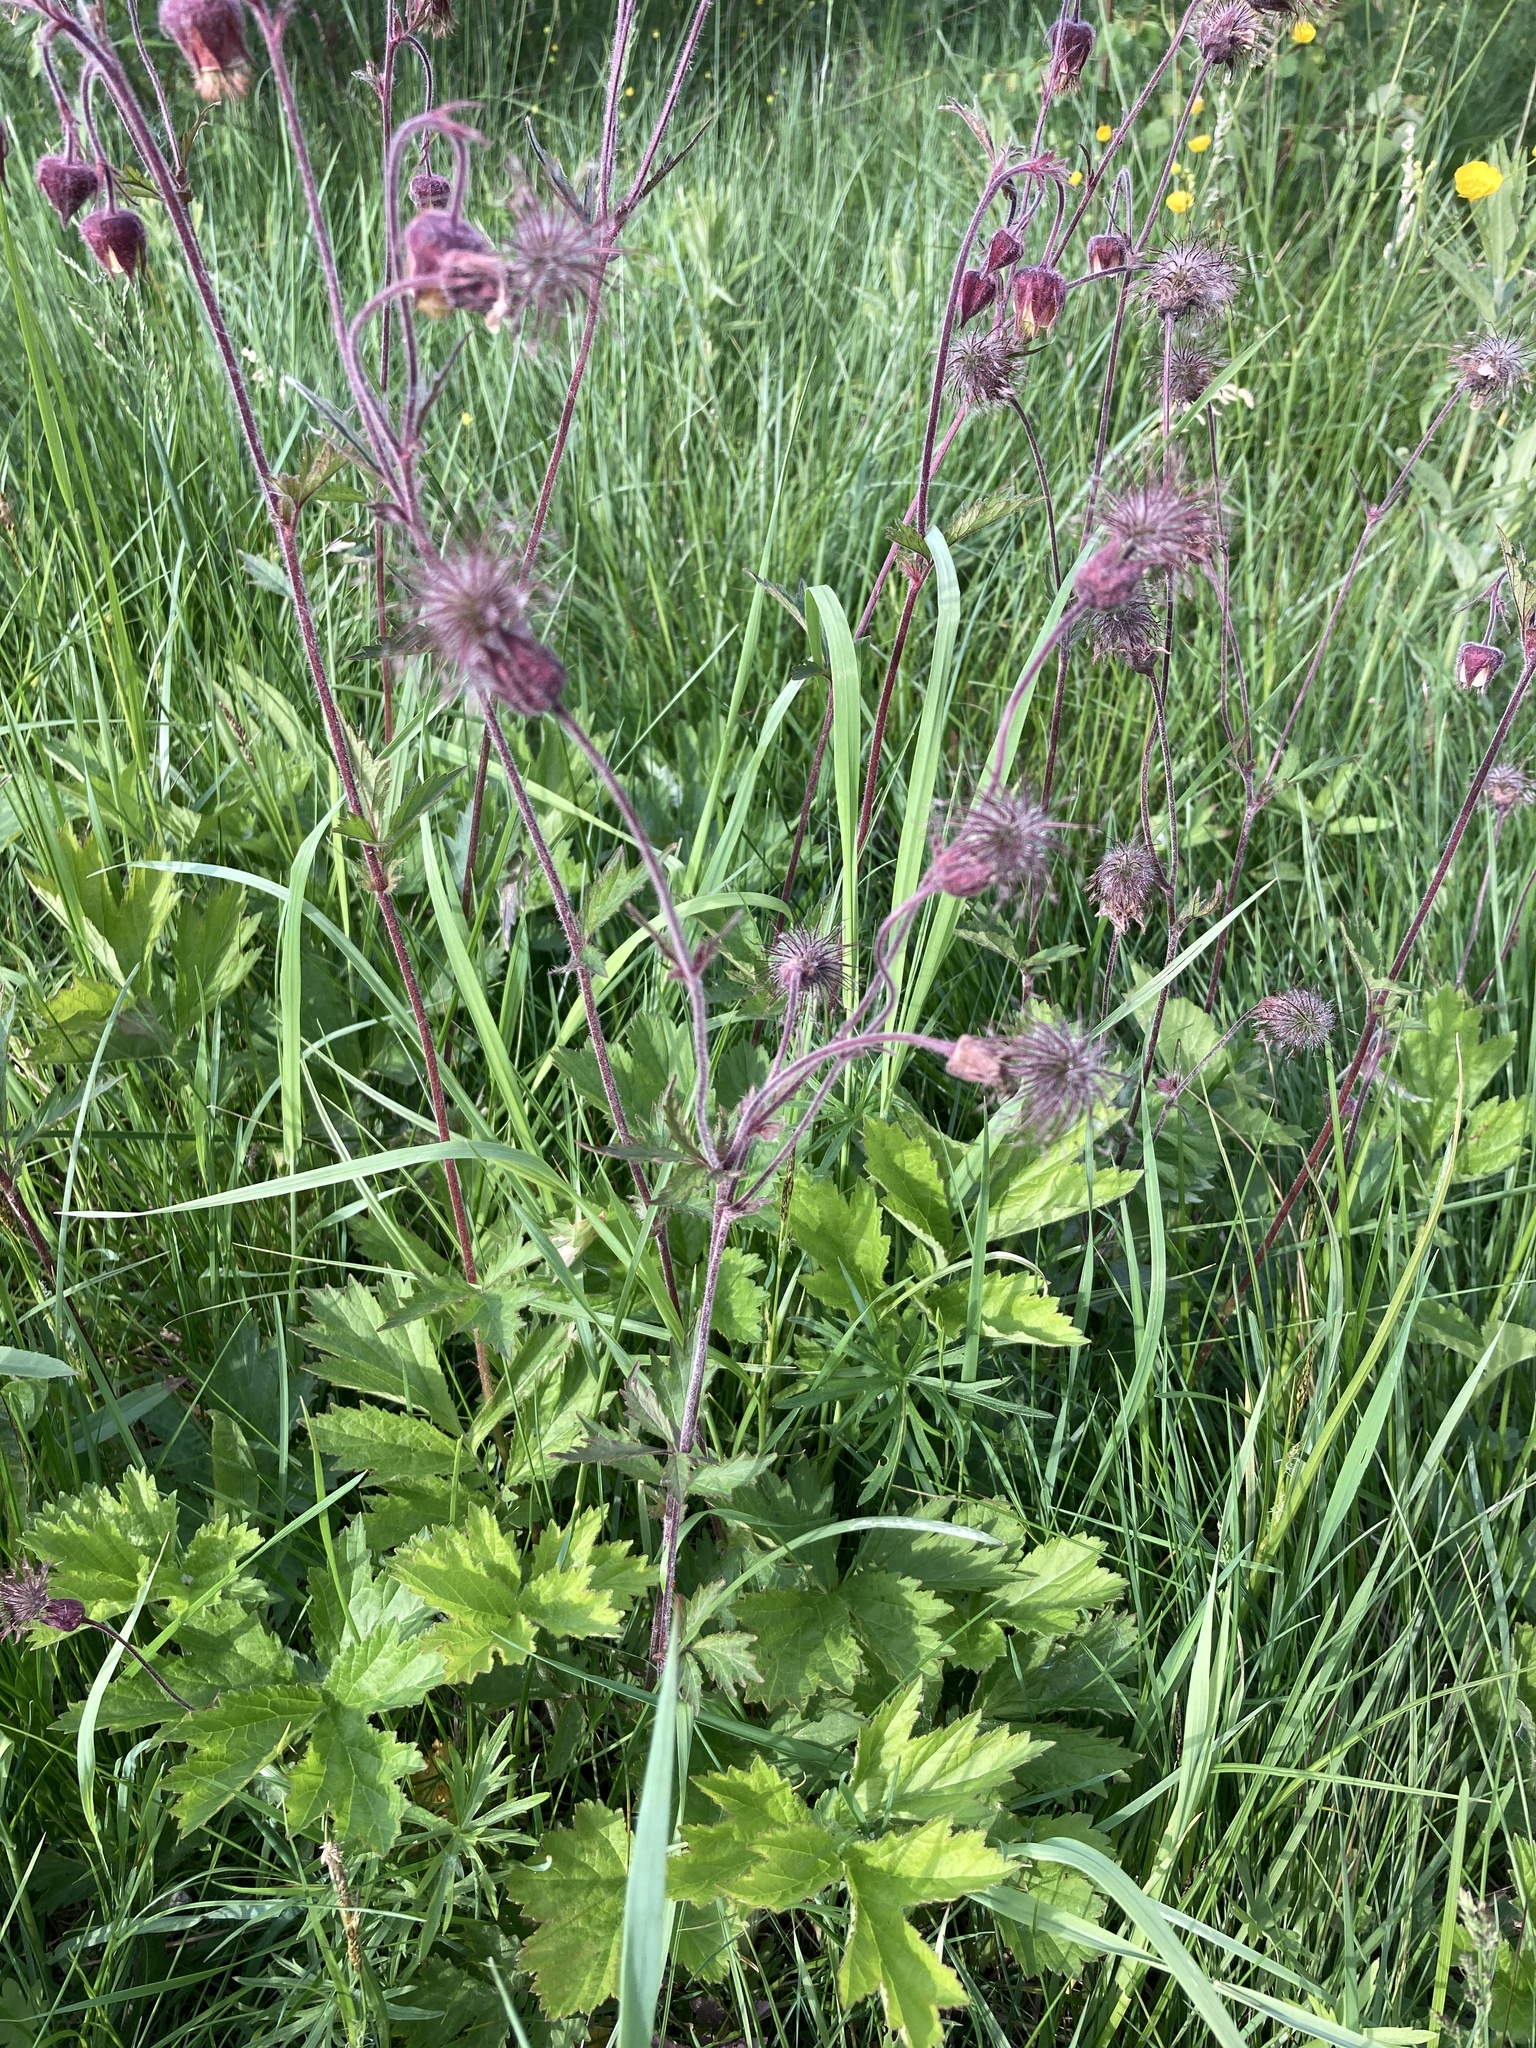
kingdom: Plantae
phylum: Tracheophyta
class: Magnoliopsida
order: Rosales
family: Rosaceae
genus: Geum
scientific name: Geum rivale
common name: Water avens
